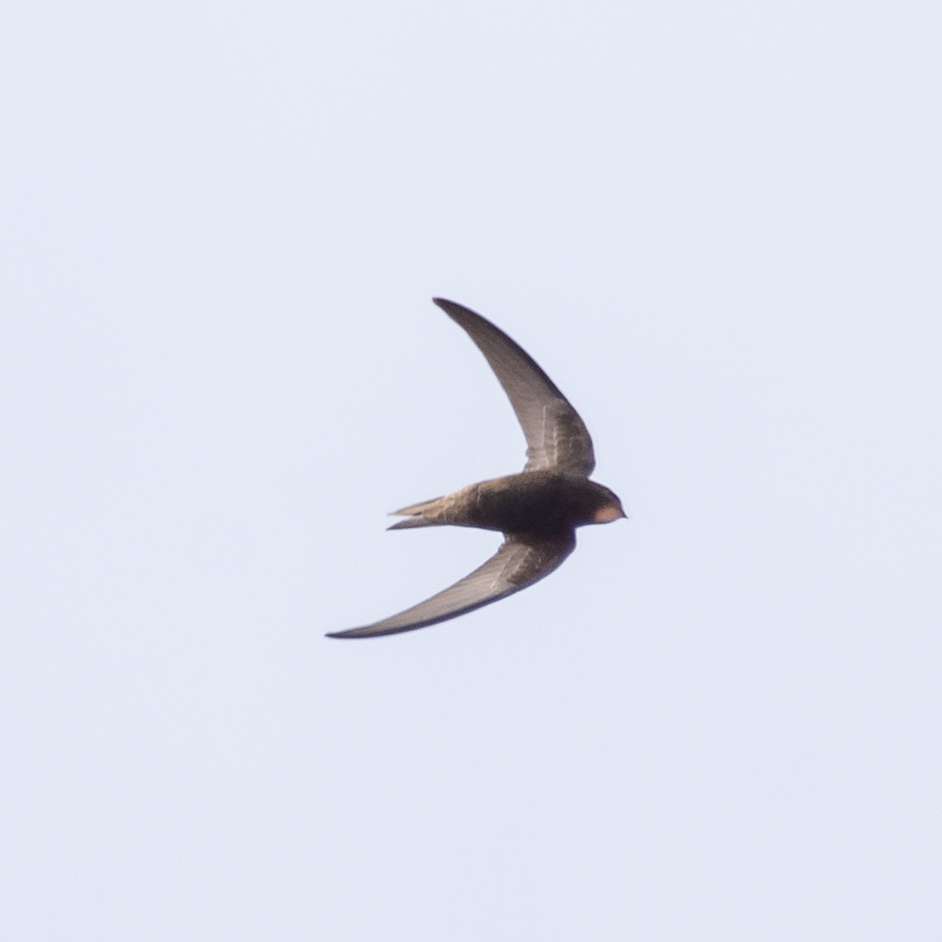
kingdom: Animalia
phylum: Chordata
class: Aves
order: Apodiformes
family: Apodidae
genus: Apus
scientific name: Apus apus
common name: Common swift
